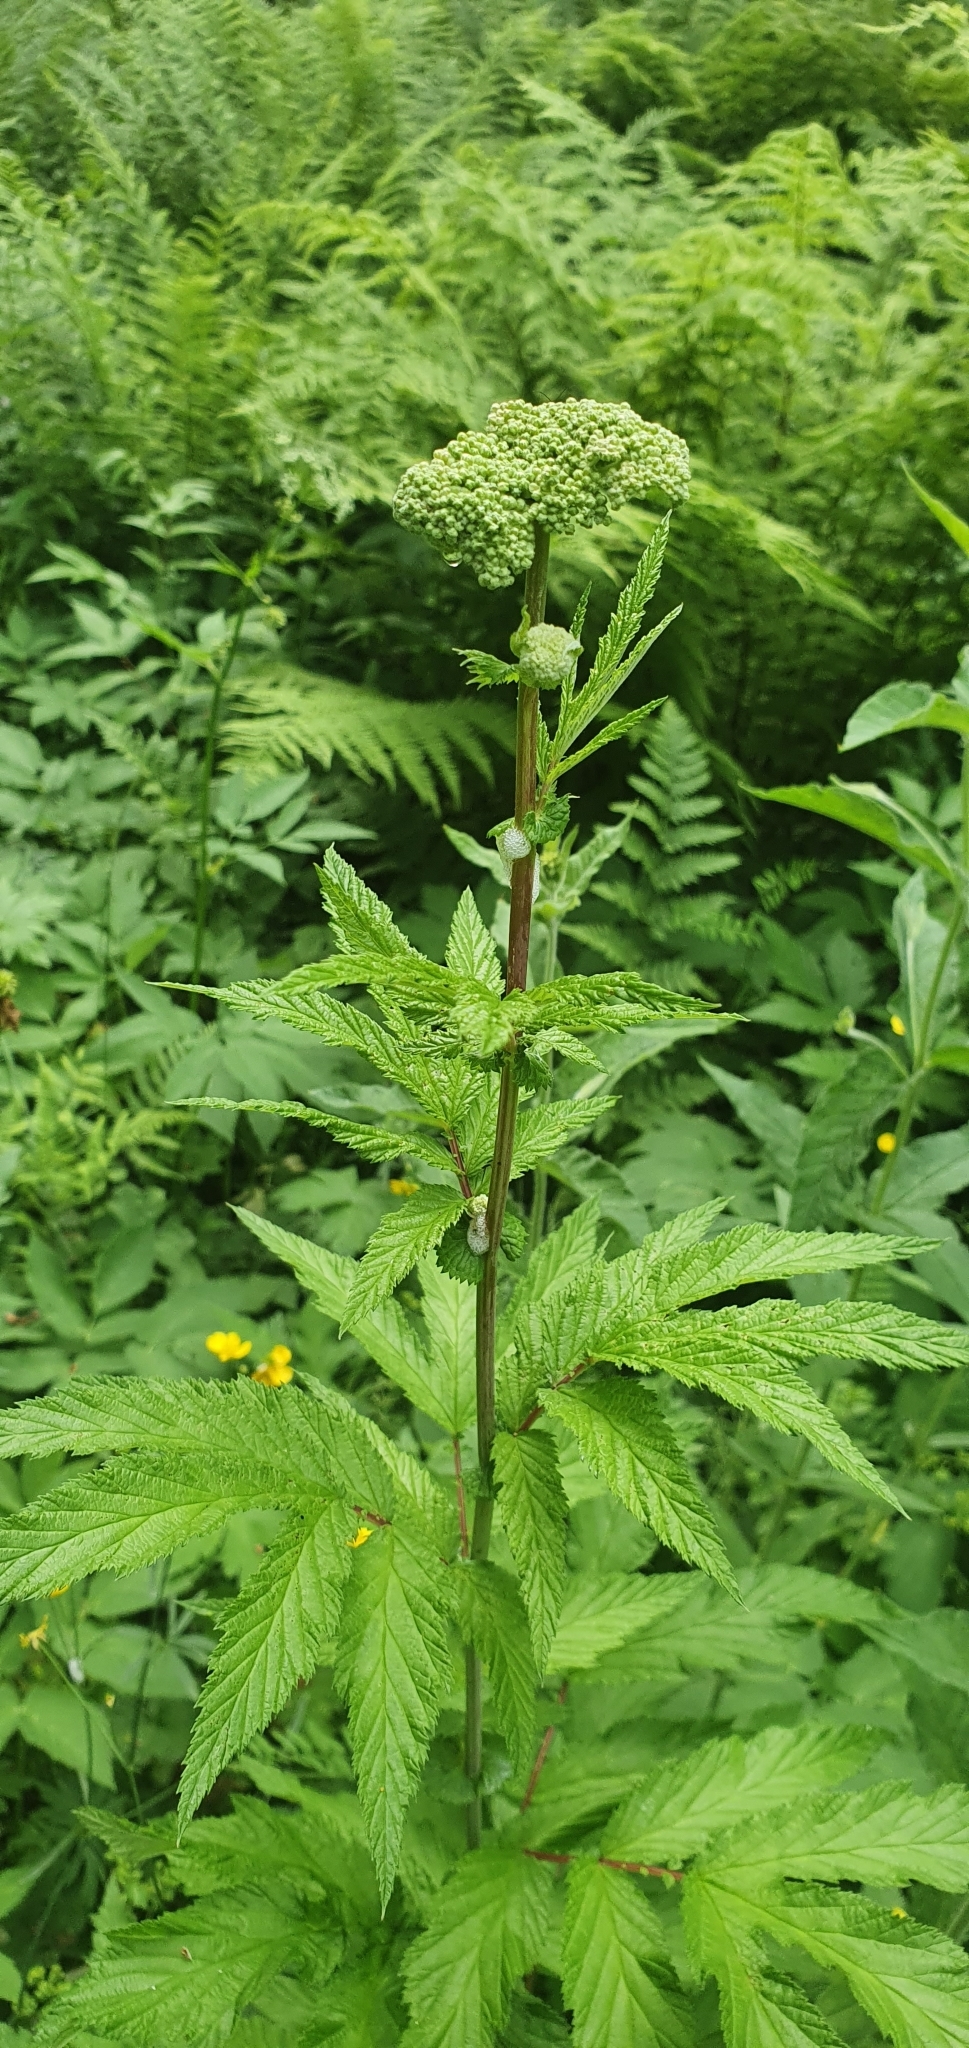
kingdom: Plantae
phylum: Tracheophyta
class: Magnoliopsida
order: Rosales
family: Rosaceae
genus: Filipendula
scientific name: Filipendula ulmaria
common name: Meadowsweet
